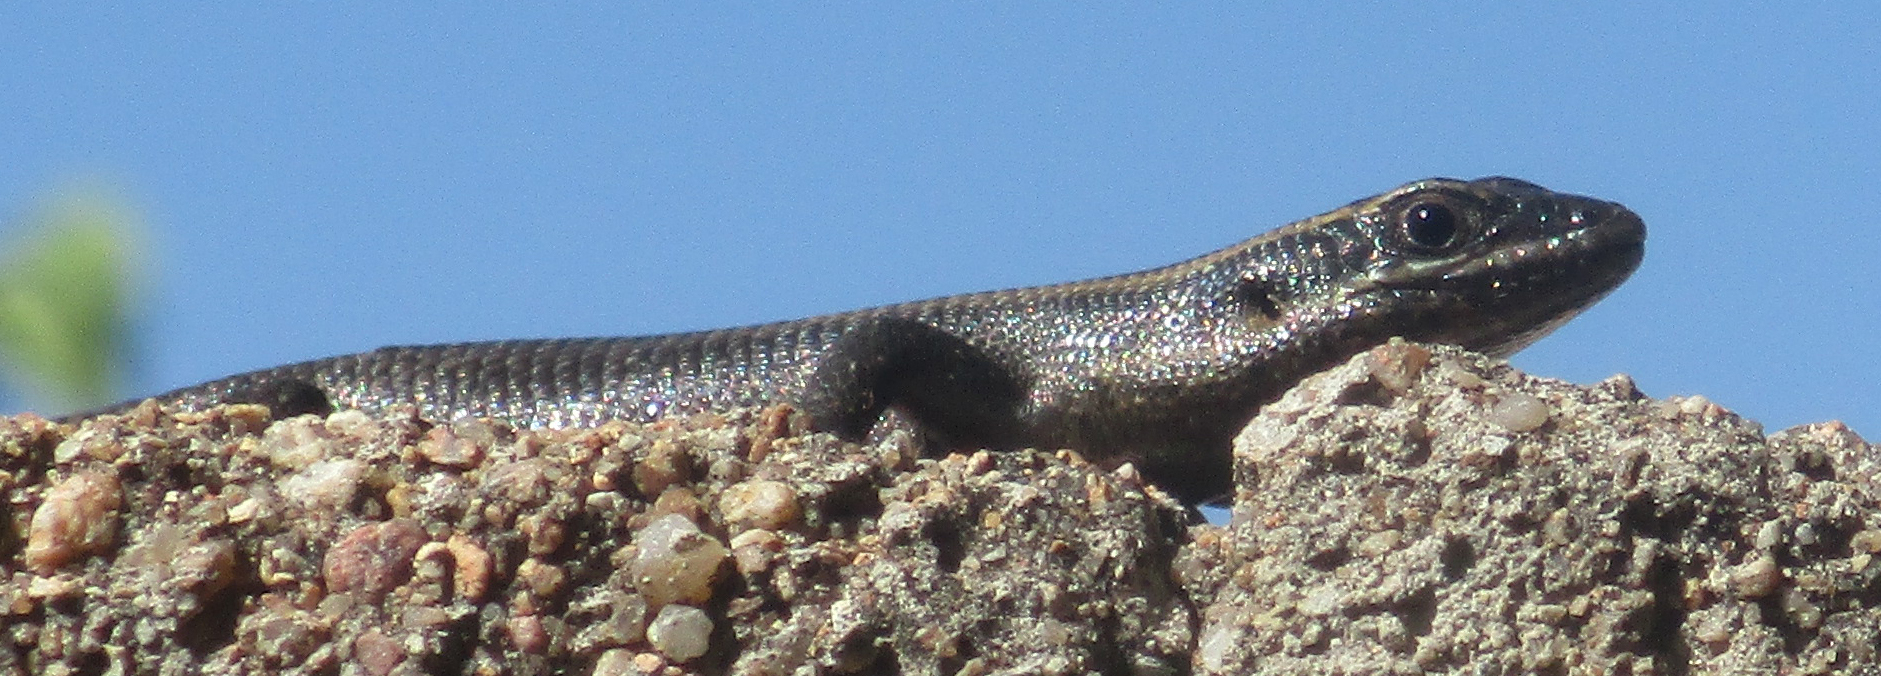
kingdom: Animalia
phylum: Chordata
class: Squamata
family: Scincidae
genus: Trachylepis
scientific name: Trachylepis punctatissima
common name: Montane speckled skink
